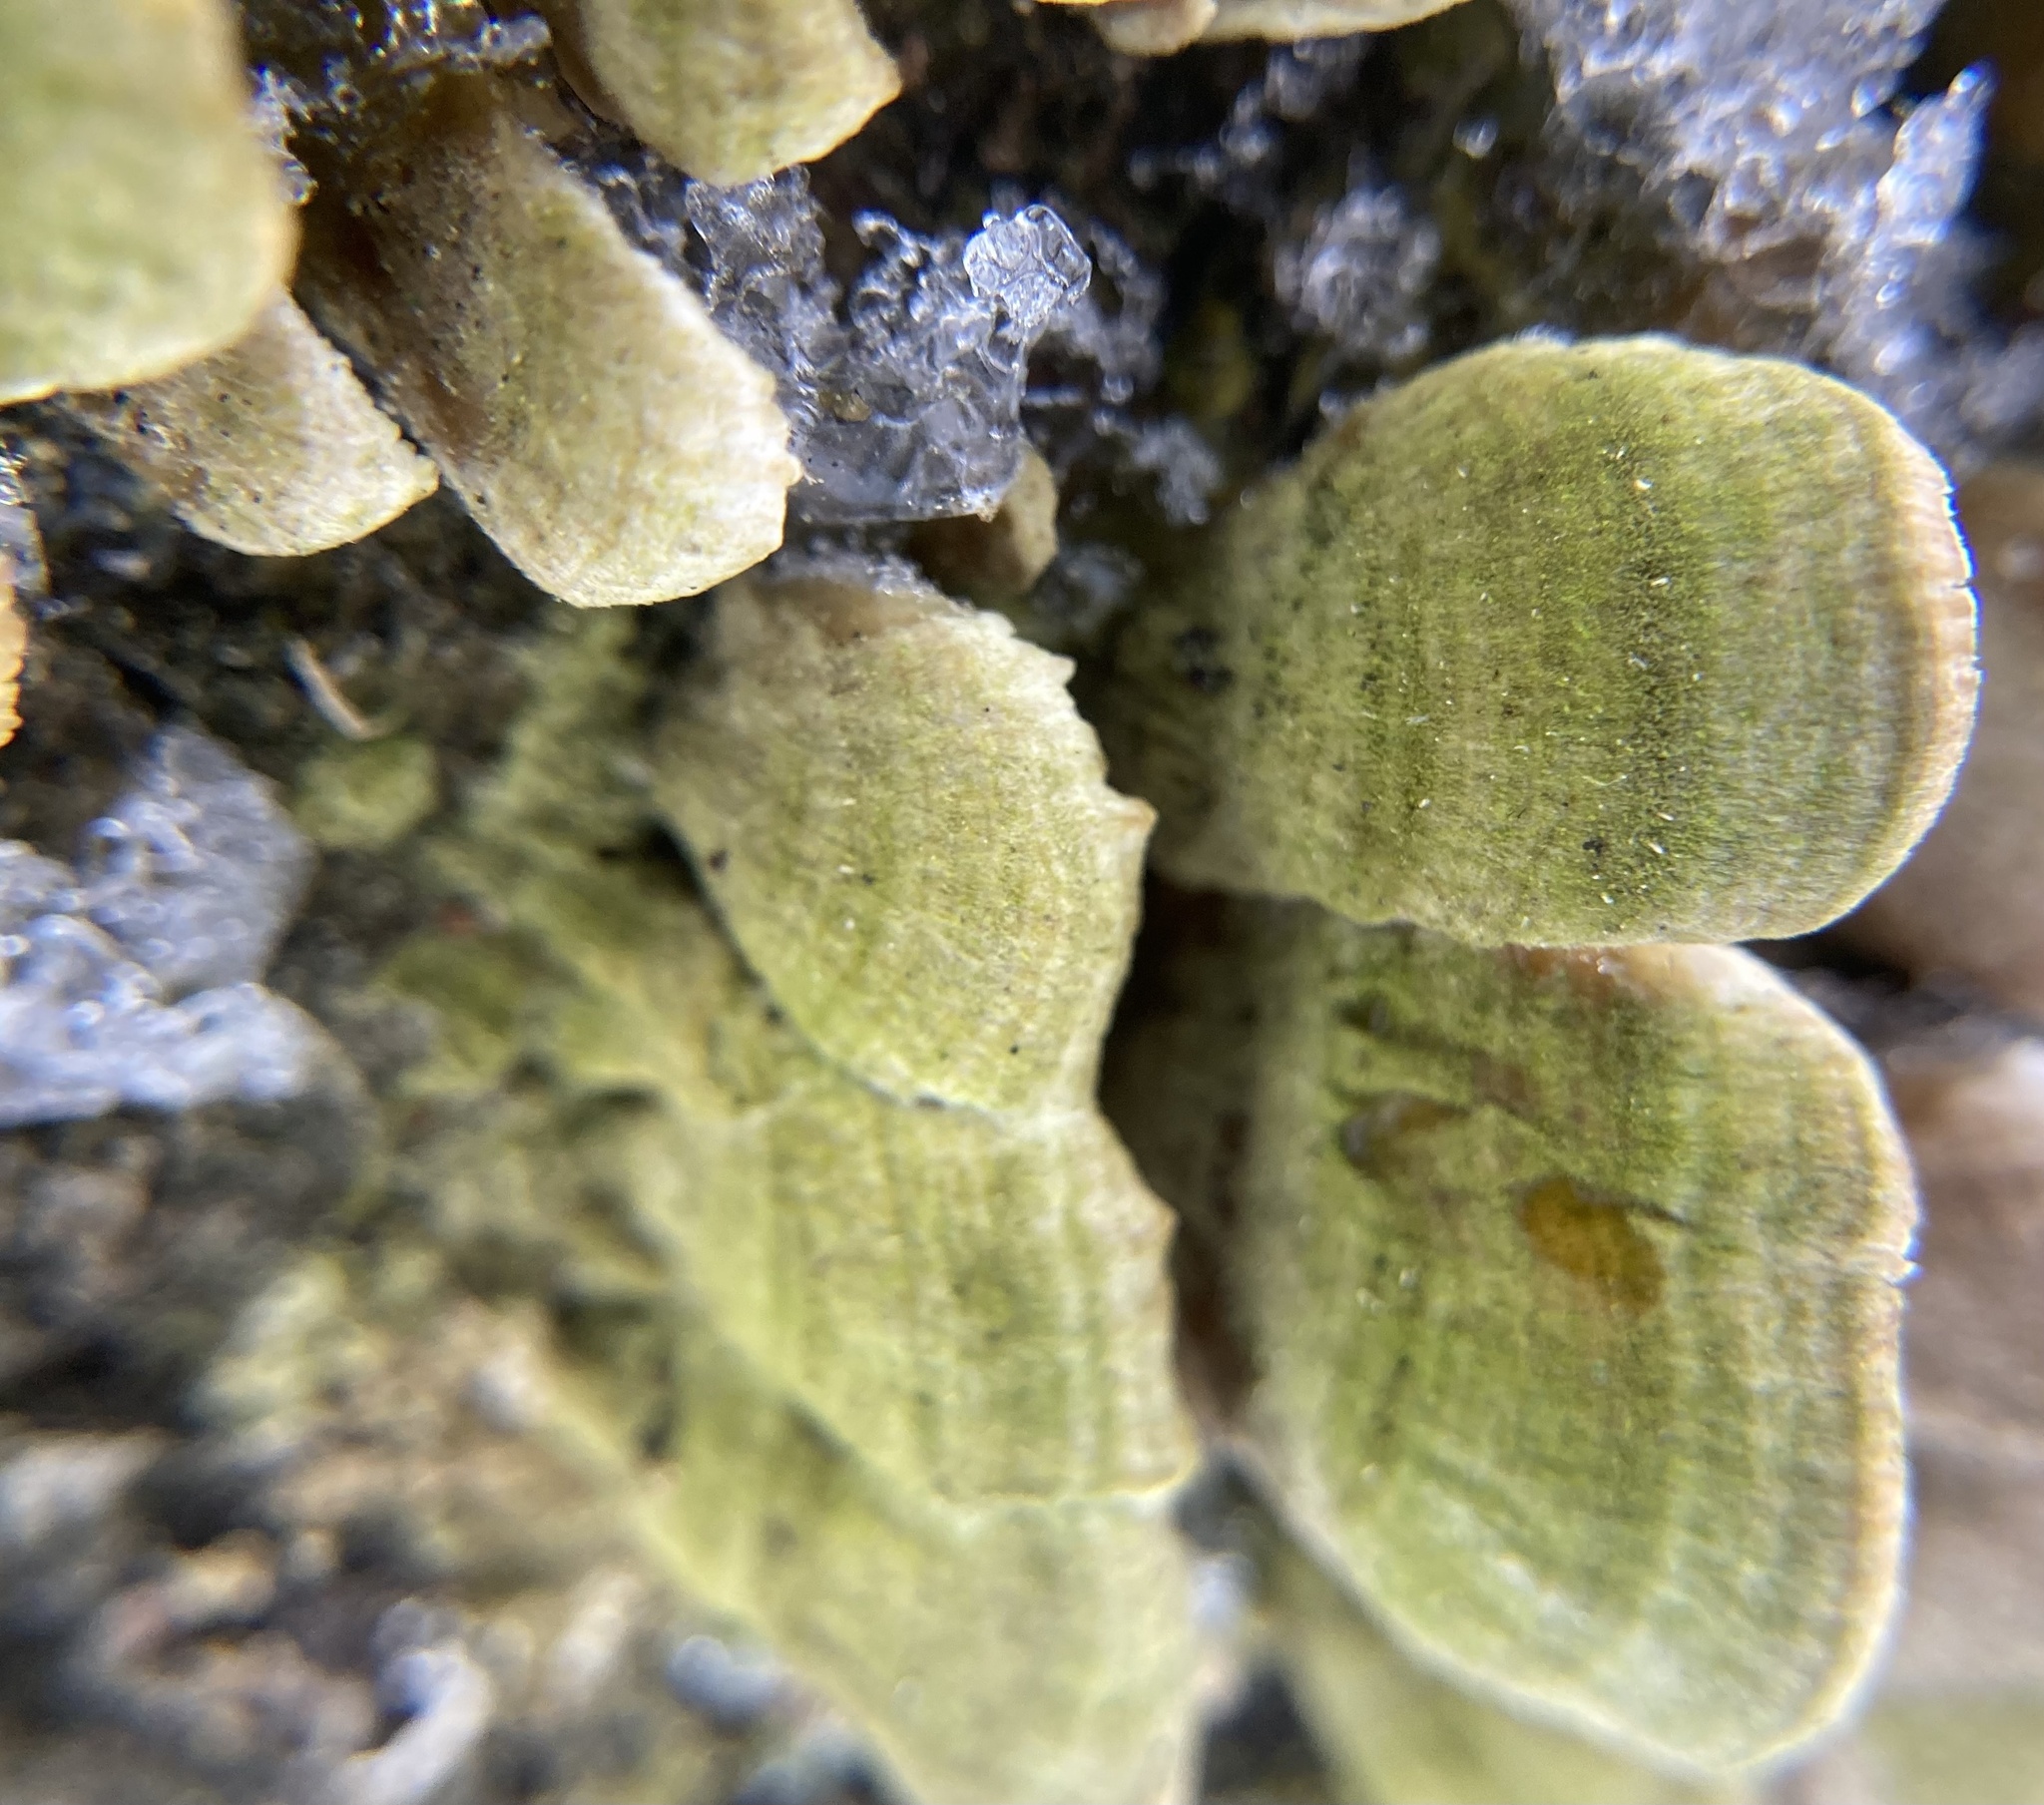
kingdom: Fungi
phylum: Basidiomycota
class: Agaricomycetes
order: Polyporales
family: Cerrenaceae
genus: Cerrena
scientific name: Cerrena unicolor
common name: Mossy maze polypore
